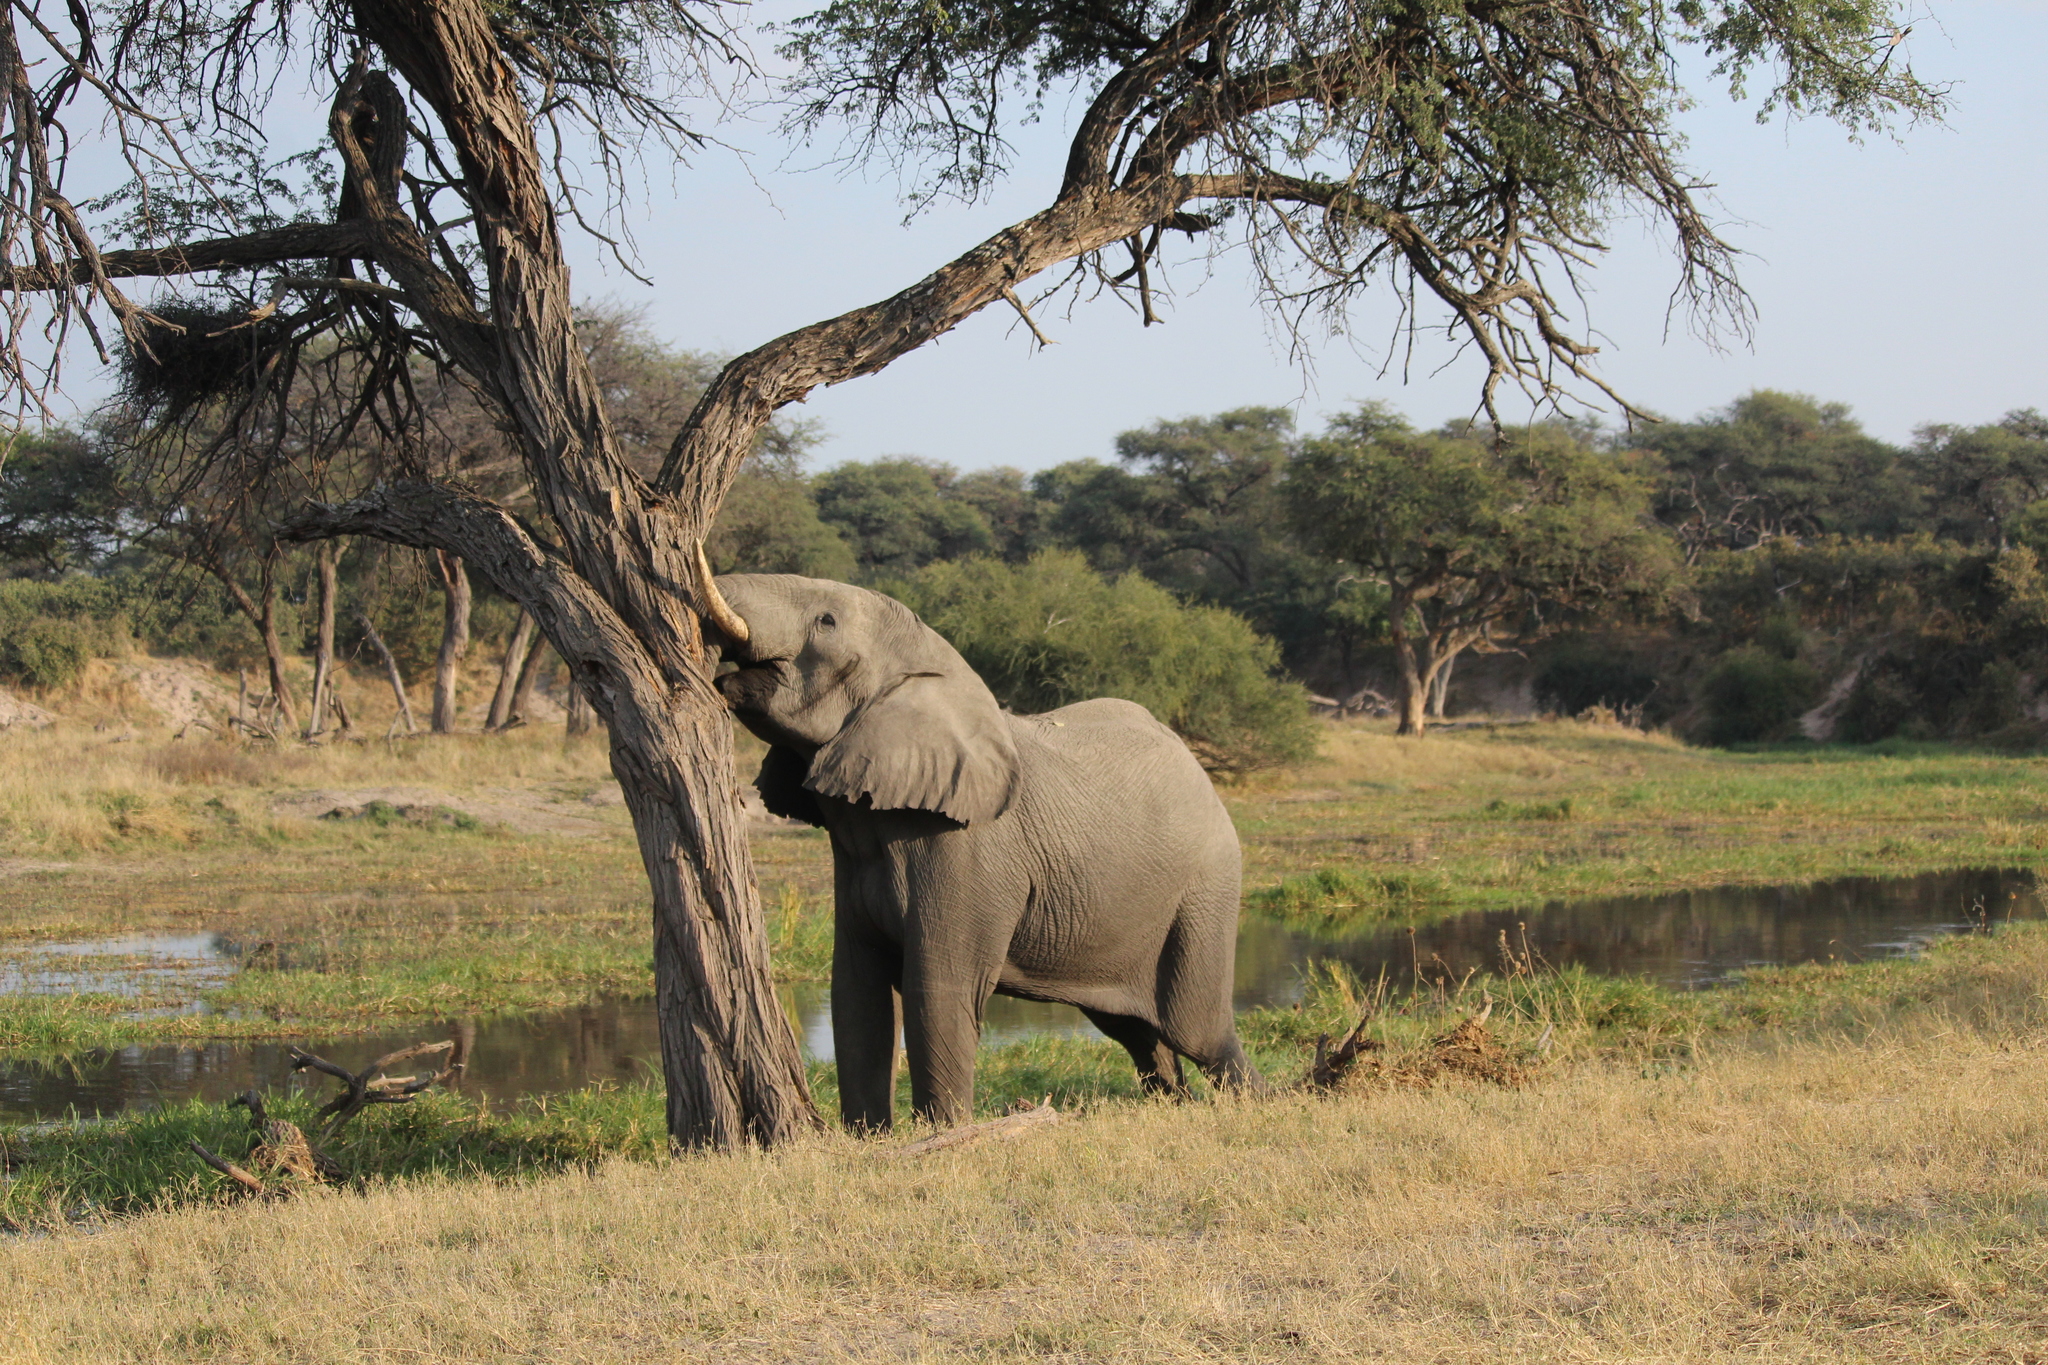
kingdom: Animalia
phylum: Chordata
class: Mammalia
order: Proboscidea
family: Elephantidae
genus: Loxodonta
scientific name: Loxodonta africana
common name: African elephant
